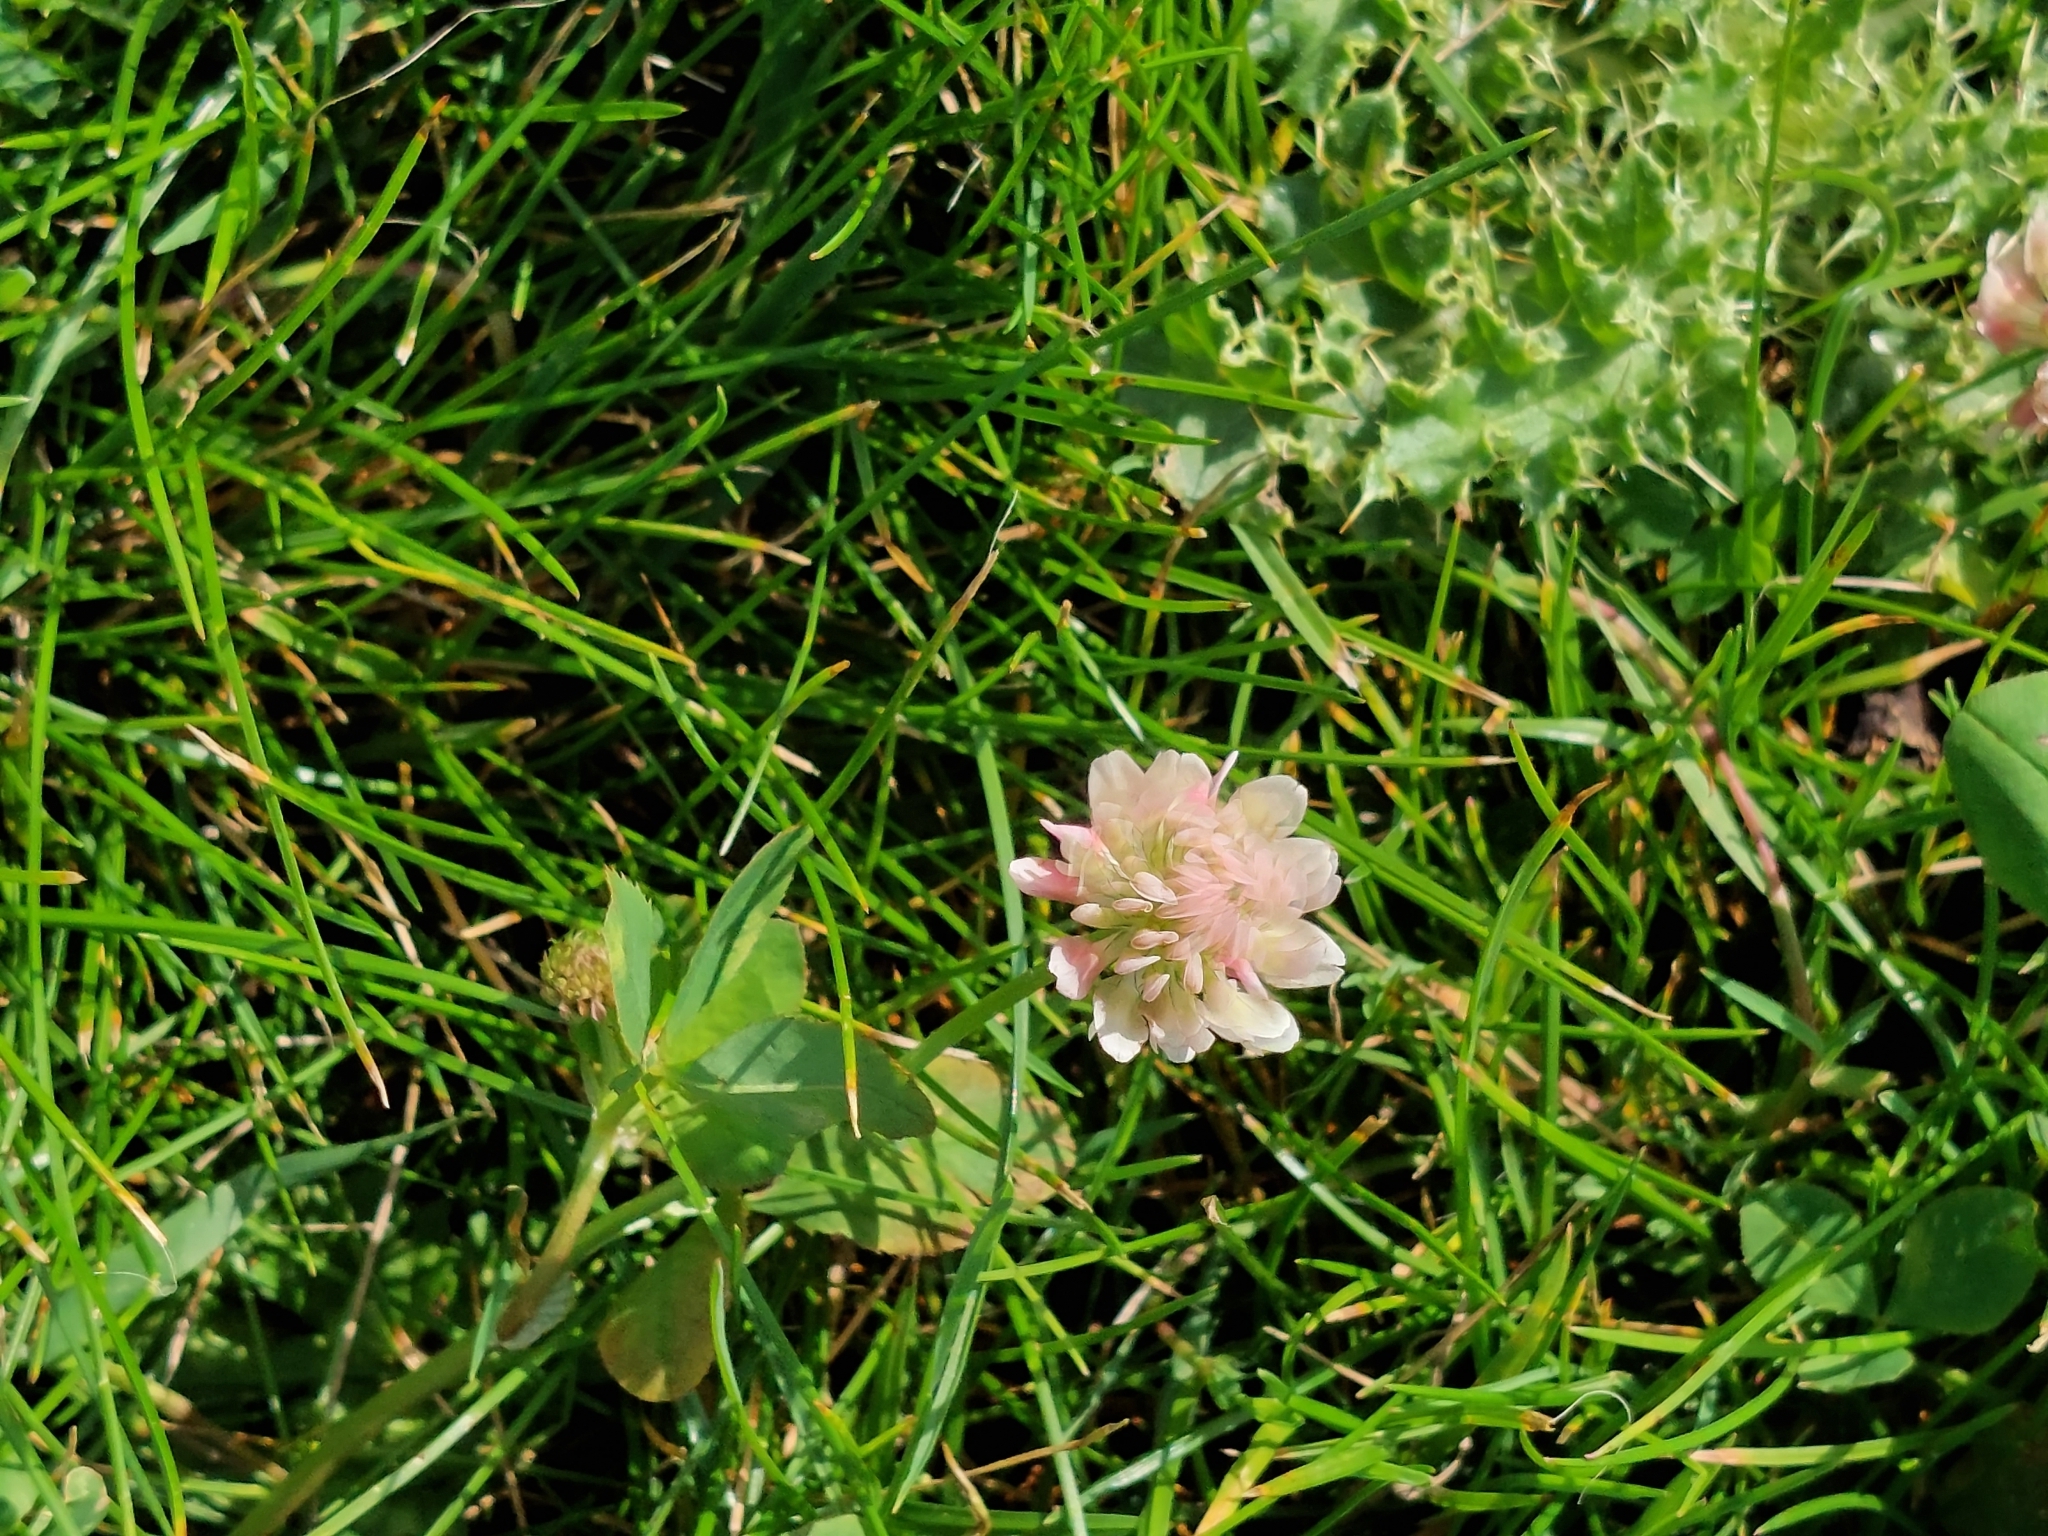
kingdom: Plantae
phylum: Tracheophyta
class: Magnoliopsida
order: Fabales
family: Fabaceae
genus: Trifolium
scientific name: Trifolium repens
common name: White clover
